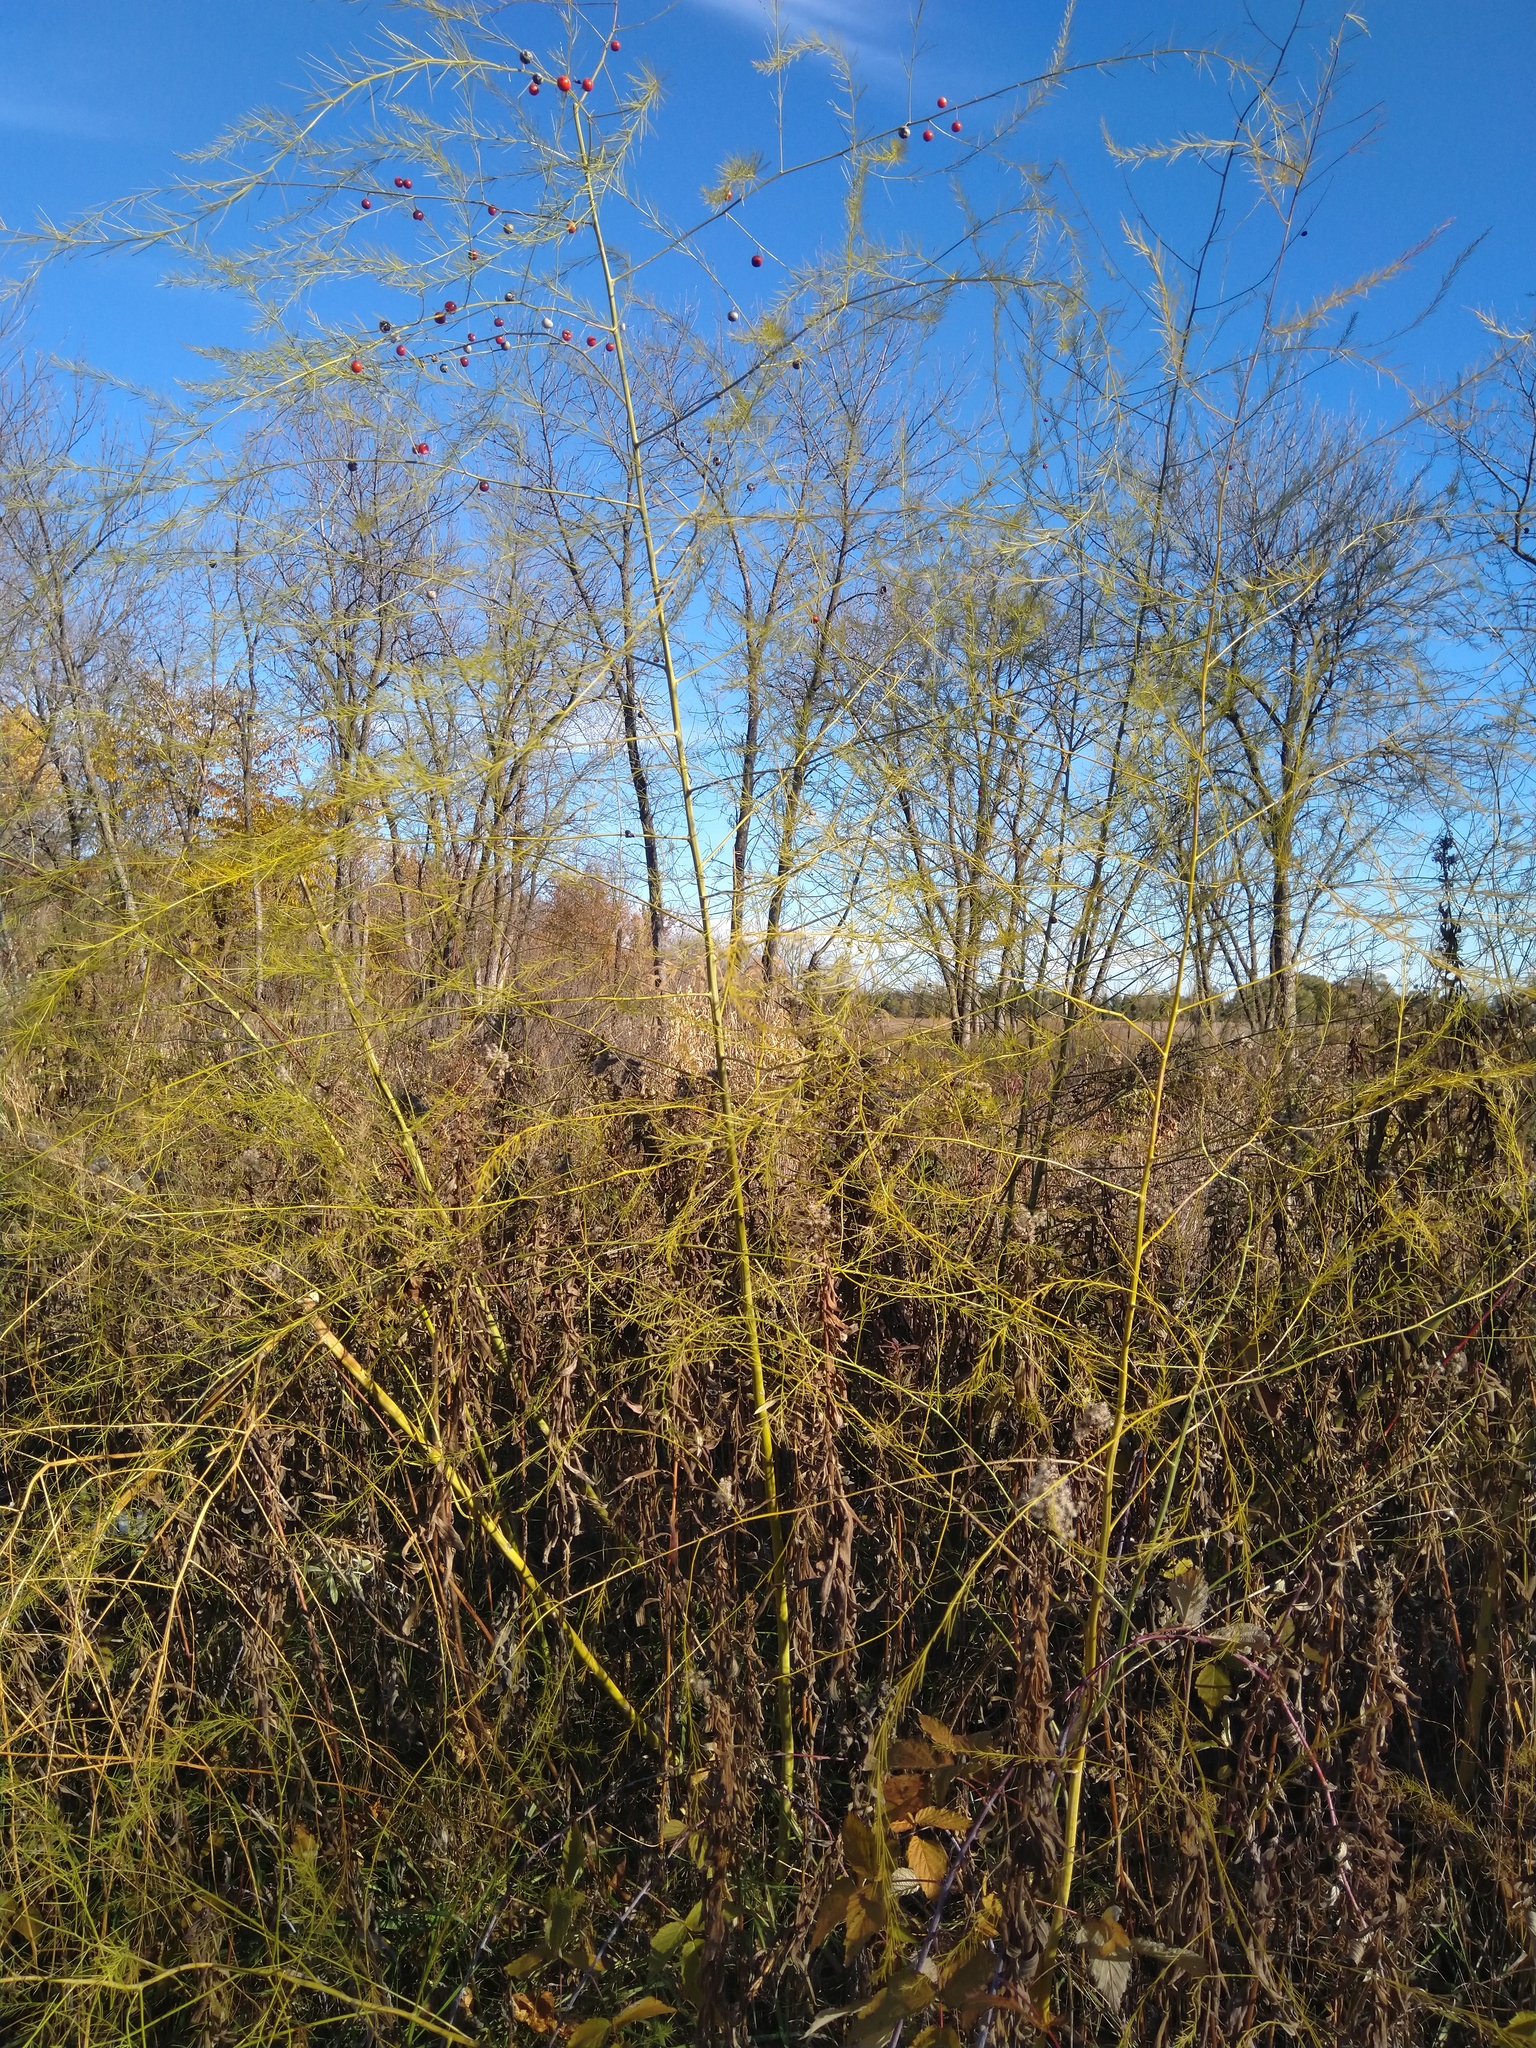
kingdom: Plantae
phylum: Tracheophyta
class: Liliopsida
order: Asparagales
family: Asparagaceae
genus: Asparagus
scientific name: Asparagus officinalis
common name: Garden asparagus
